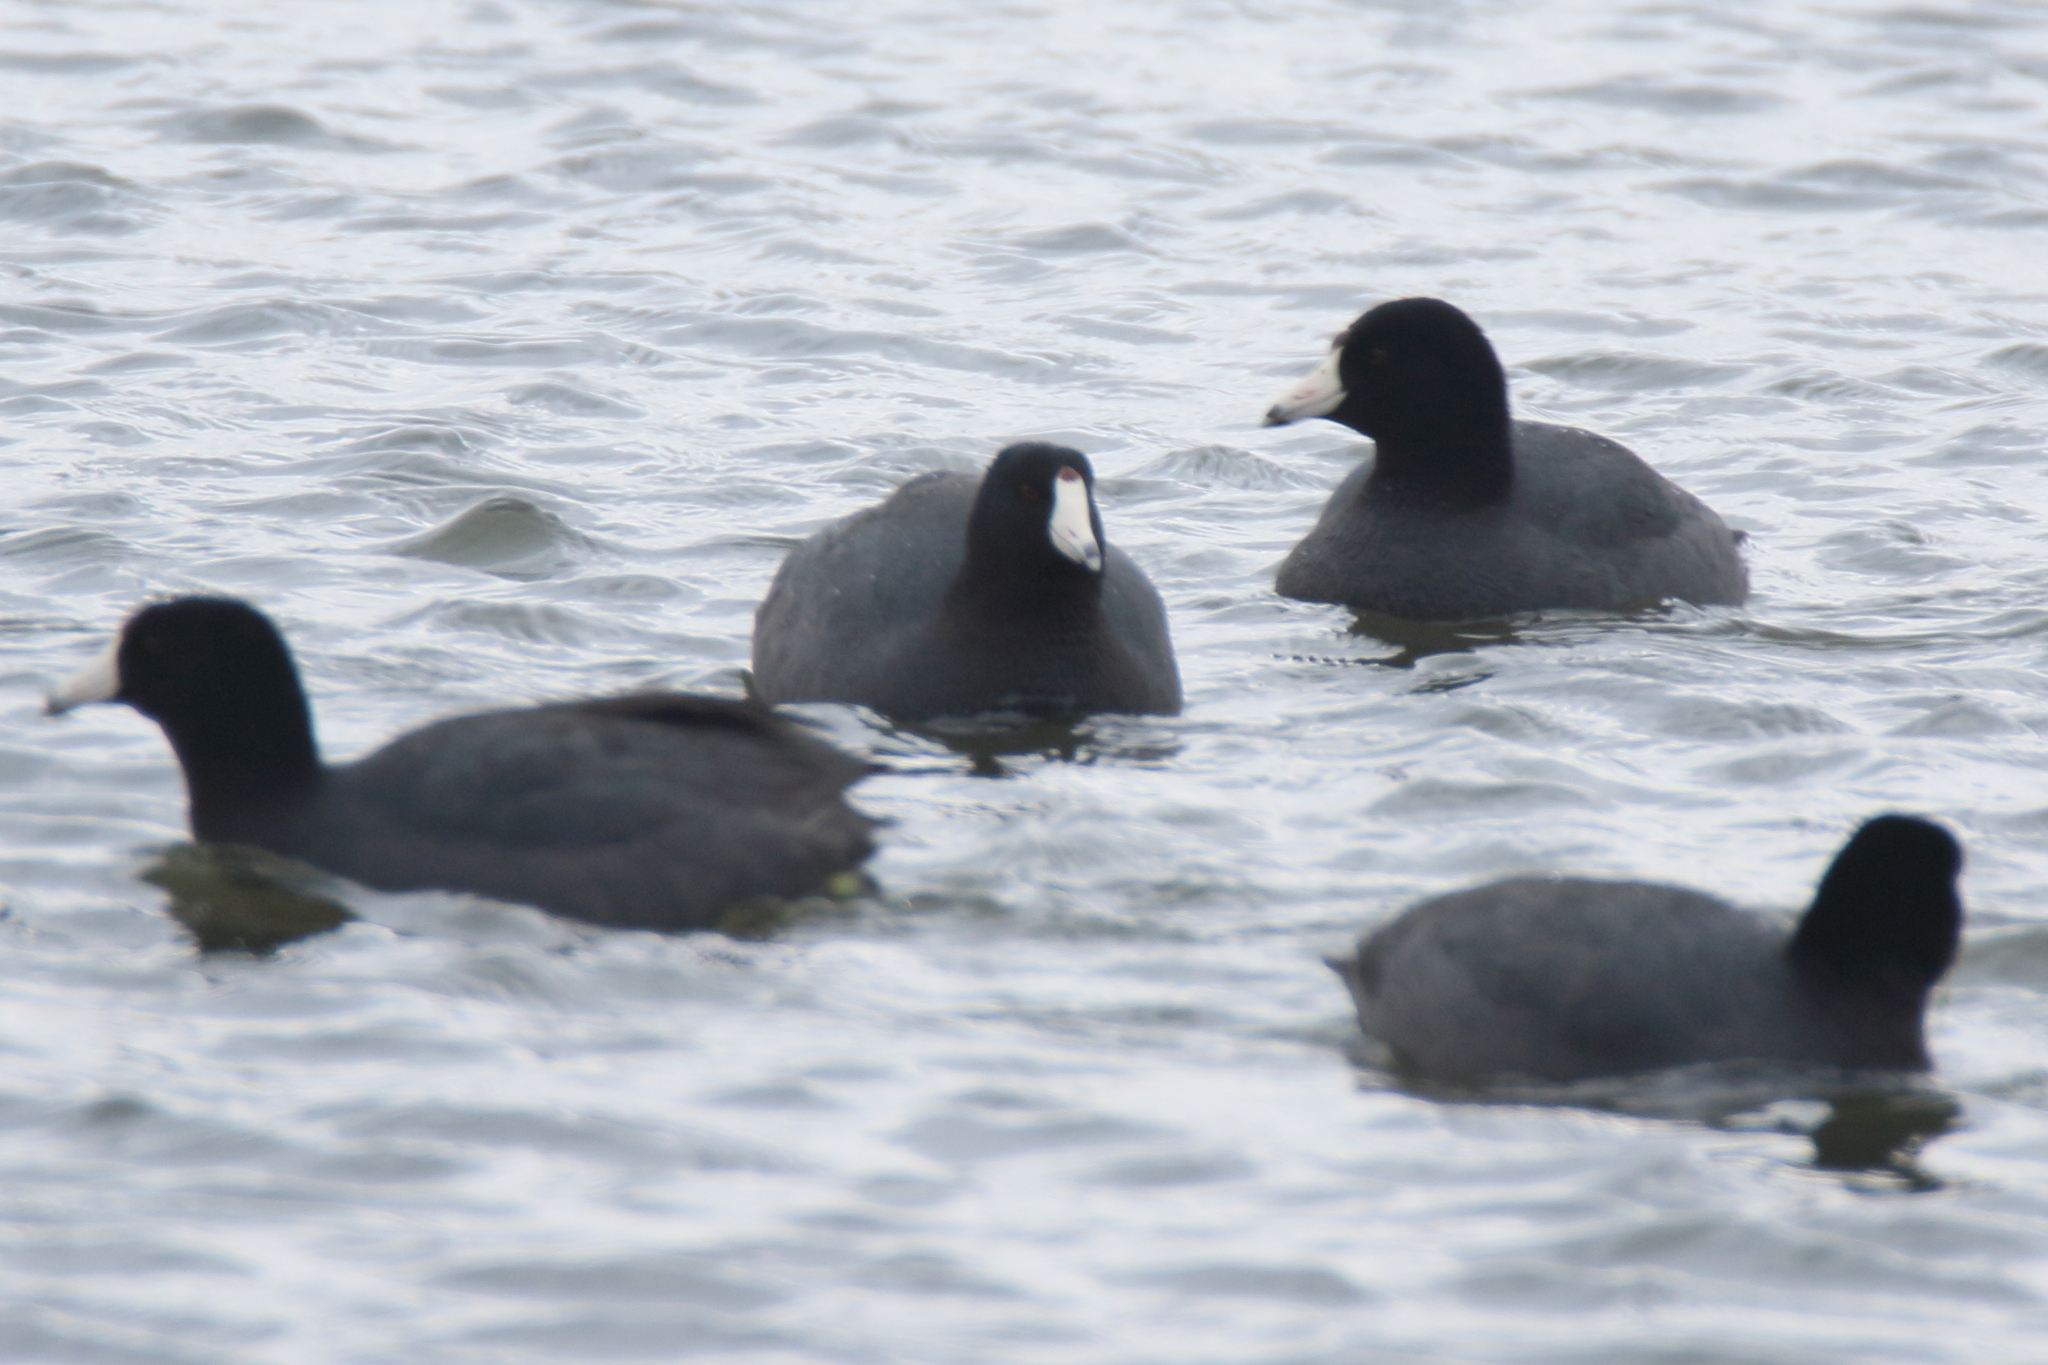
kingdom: Animalia
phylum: Chordata
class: Aves
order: Gruiformes
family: Rallidae
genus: Fulica
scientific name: Fulica americana
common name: American coot
